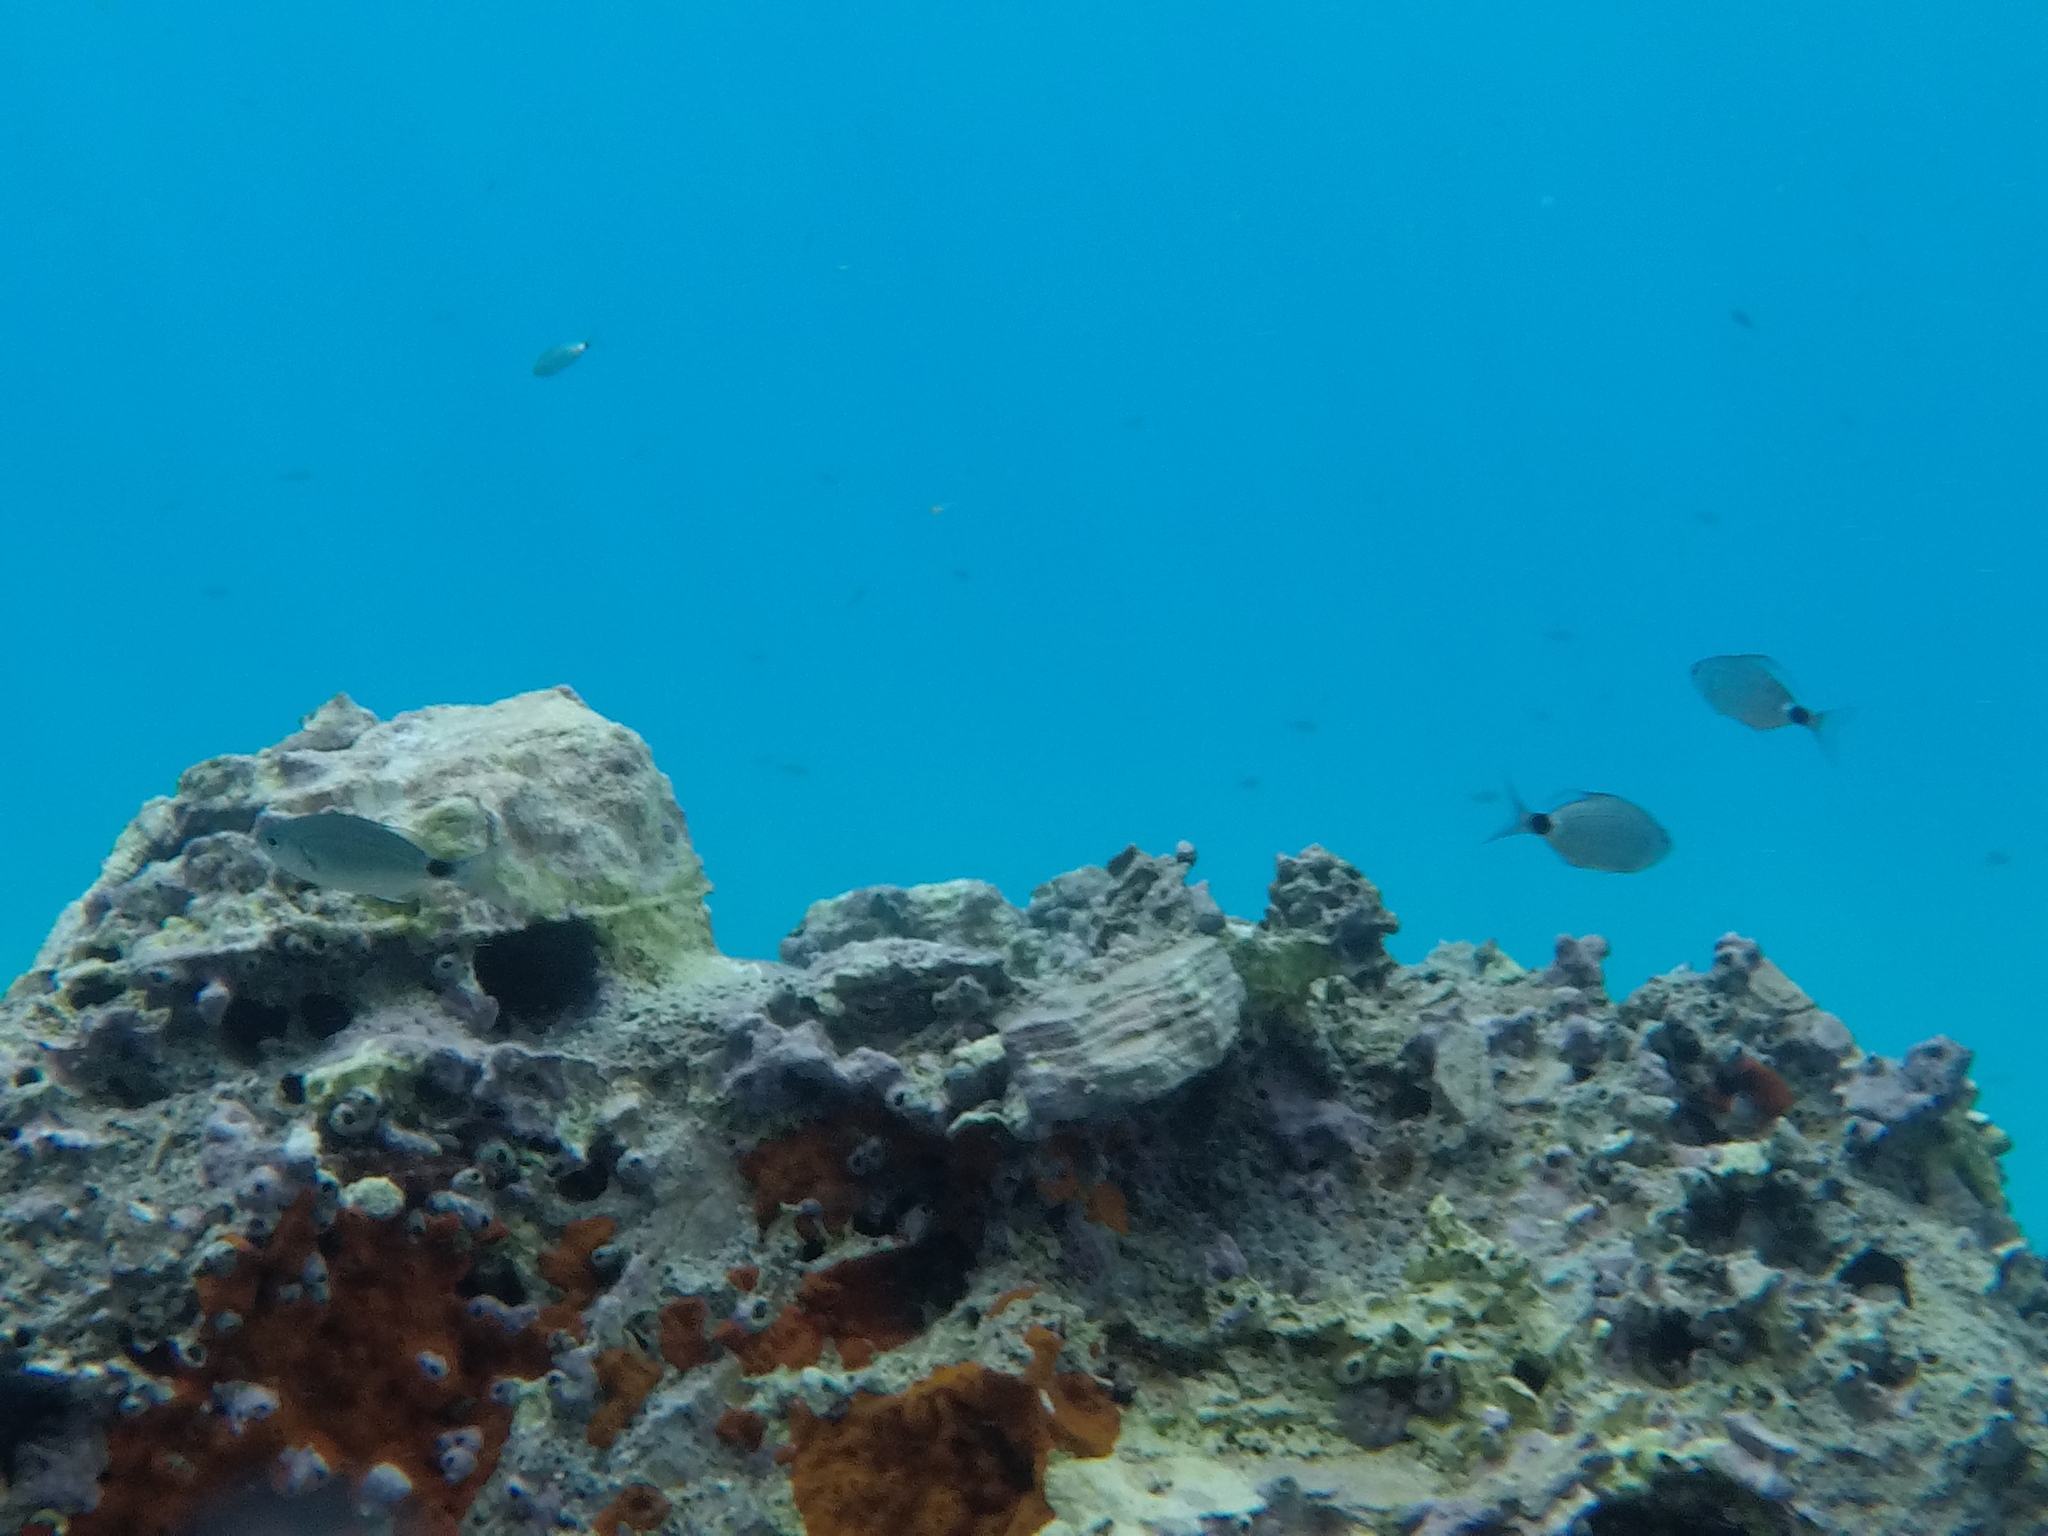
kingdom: Animalia
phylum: Chordata
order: Perciformes
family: Sparidae
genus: Oblada
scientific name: Oblada melanura
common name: Saddled seabream
